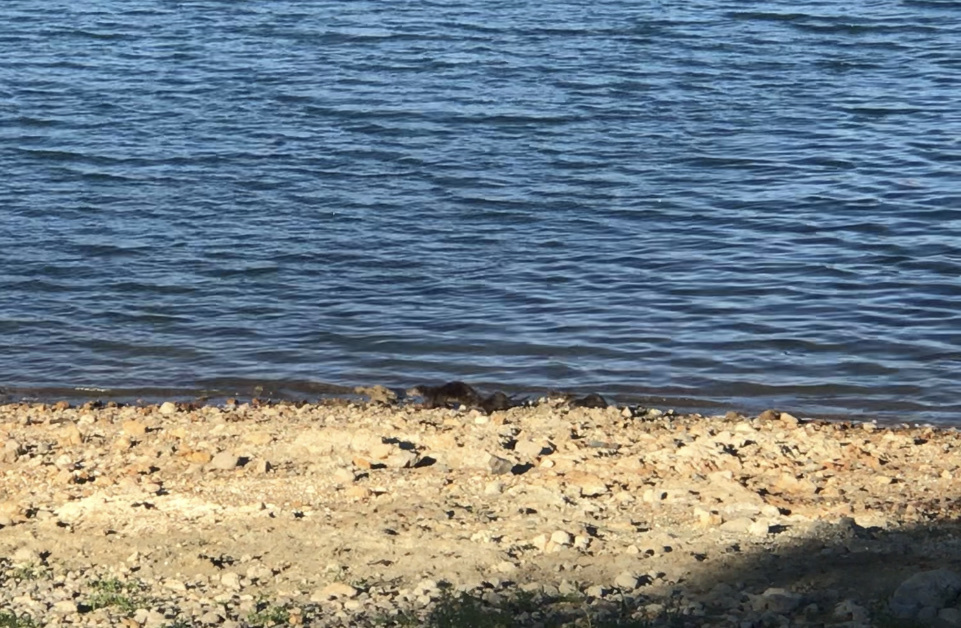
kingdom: Animalia
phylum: Chordata
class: Mammalia
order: Carnivora
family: Mustelidae
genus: Lontra
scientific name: Lontra canadensis
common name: North american river otter
